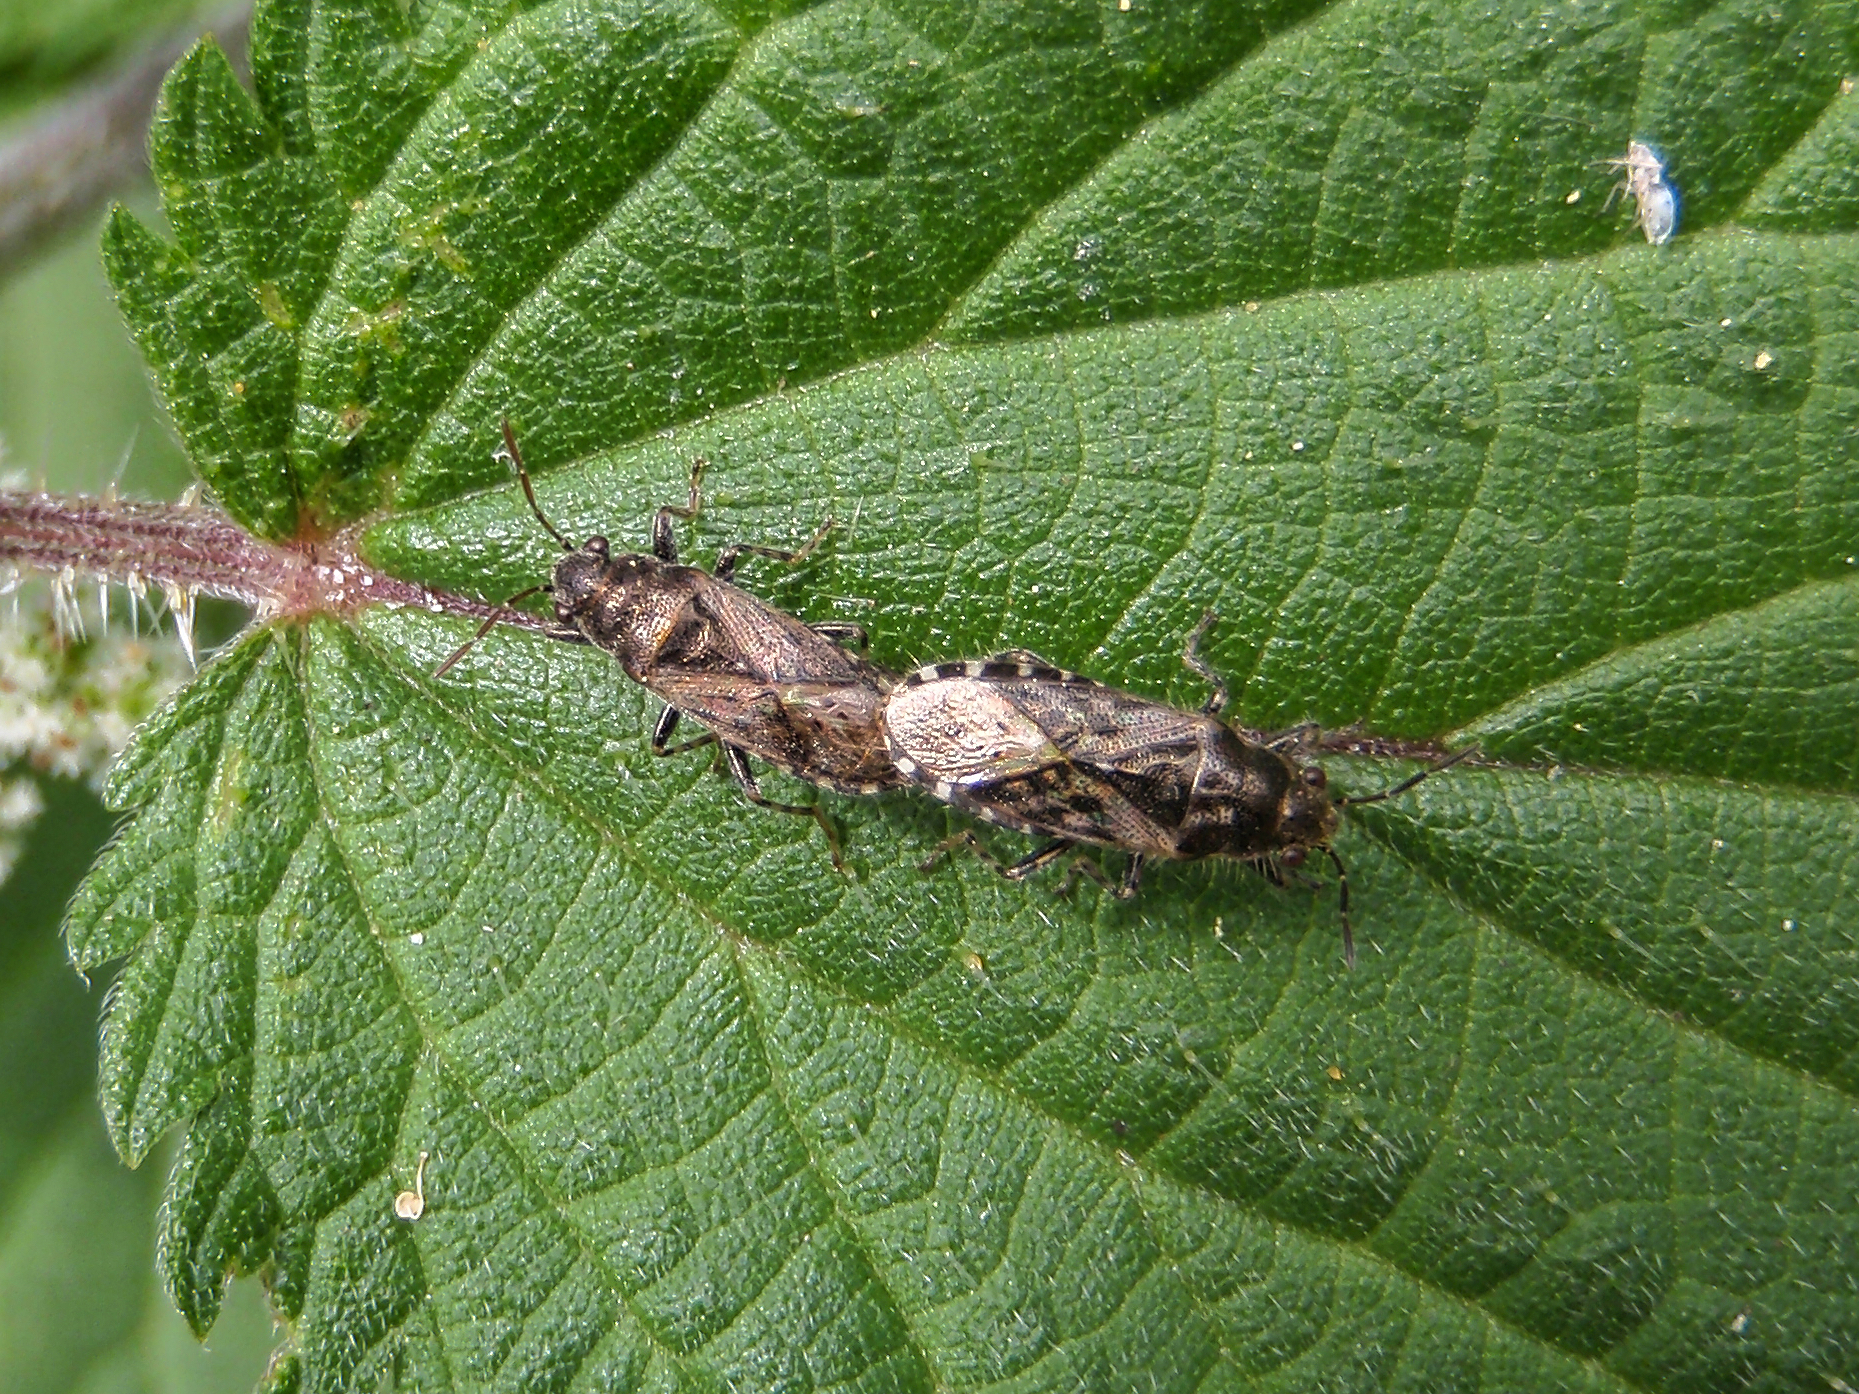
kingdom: Animalia
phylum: Arthropoda
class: Insecta
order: Hemiptera
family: Heterogastridae
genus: Heterogaster
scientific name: Heterogaster urticae
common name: Seed bug
